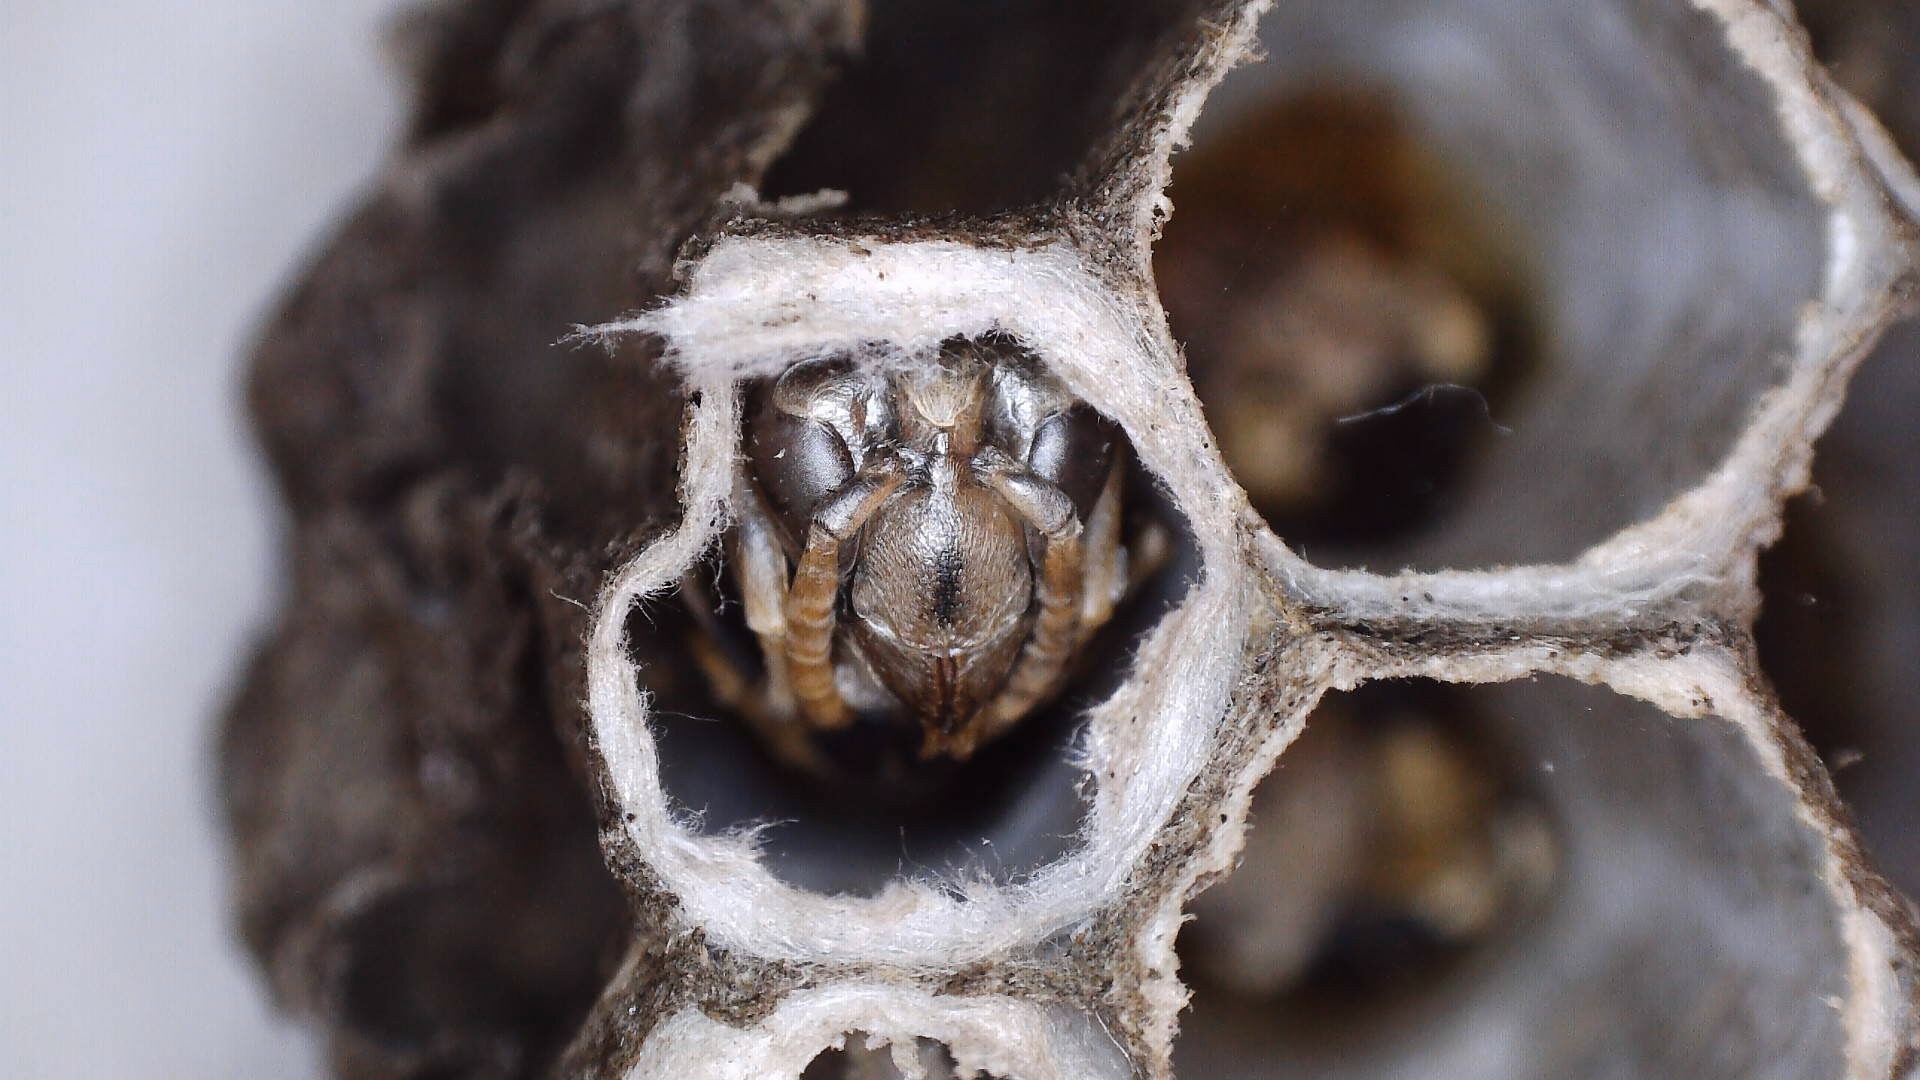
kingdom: Animalia
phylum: Arthropoda
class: Insecta
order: Hymenoptera
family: Vespidae
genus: Dolichovespula
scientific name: Dolichovespula maculata
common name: Bald-faced hornet
